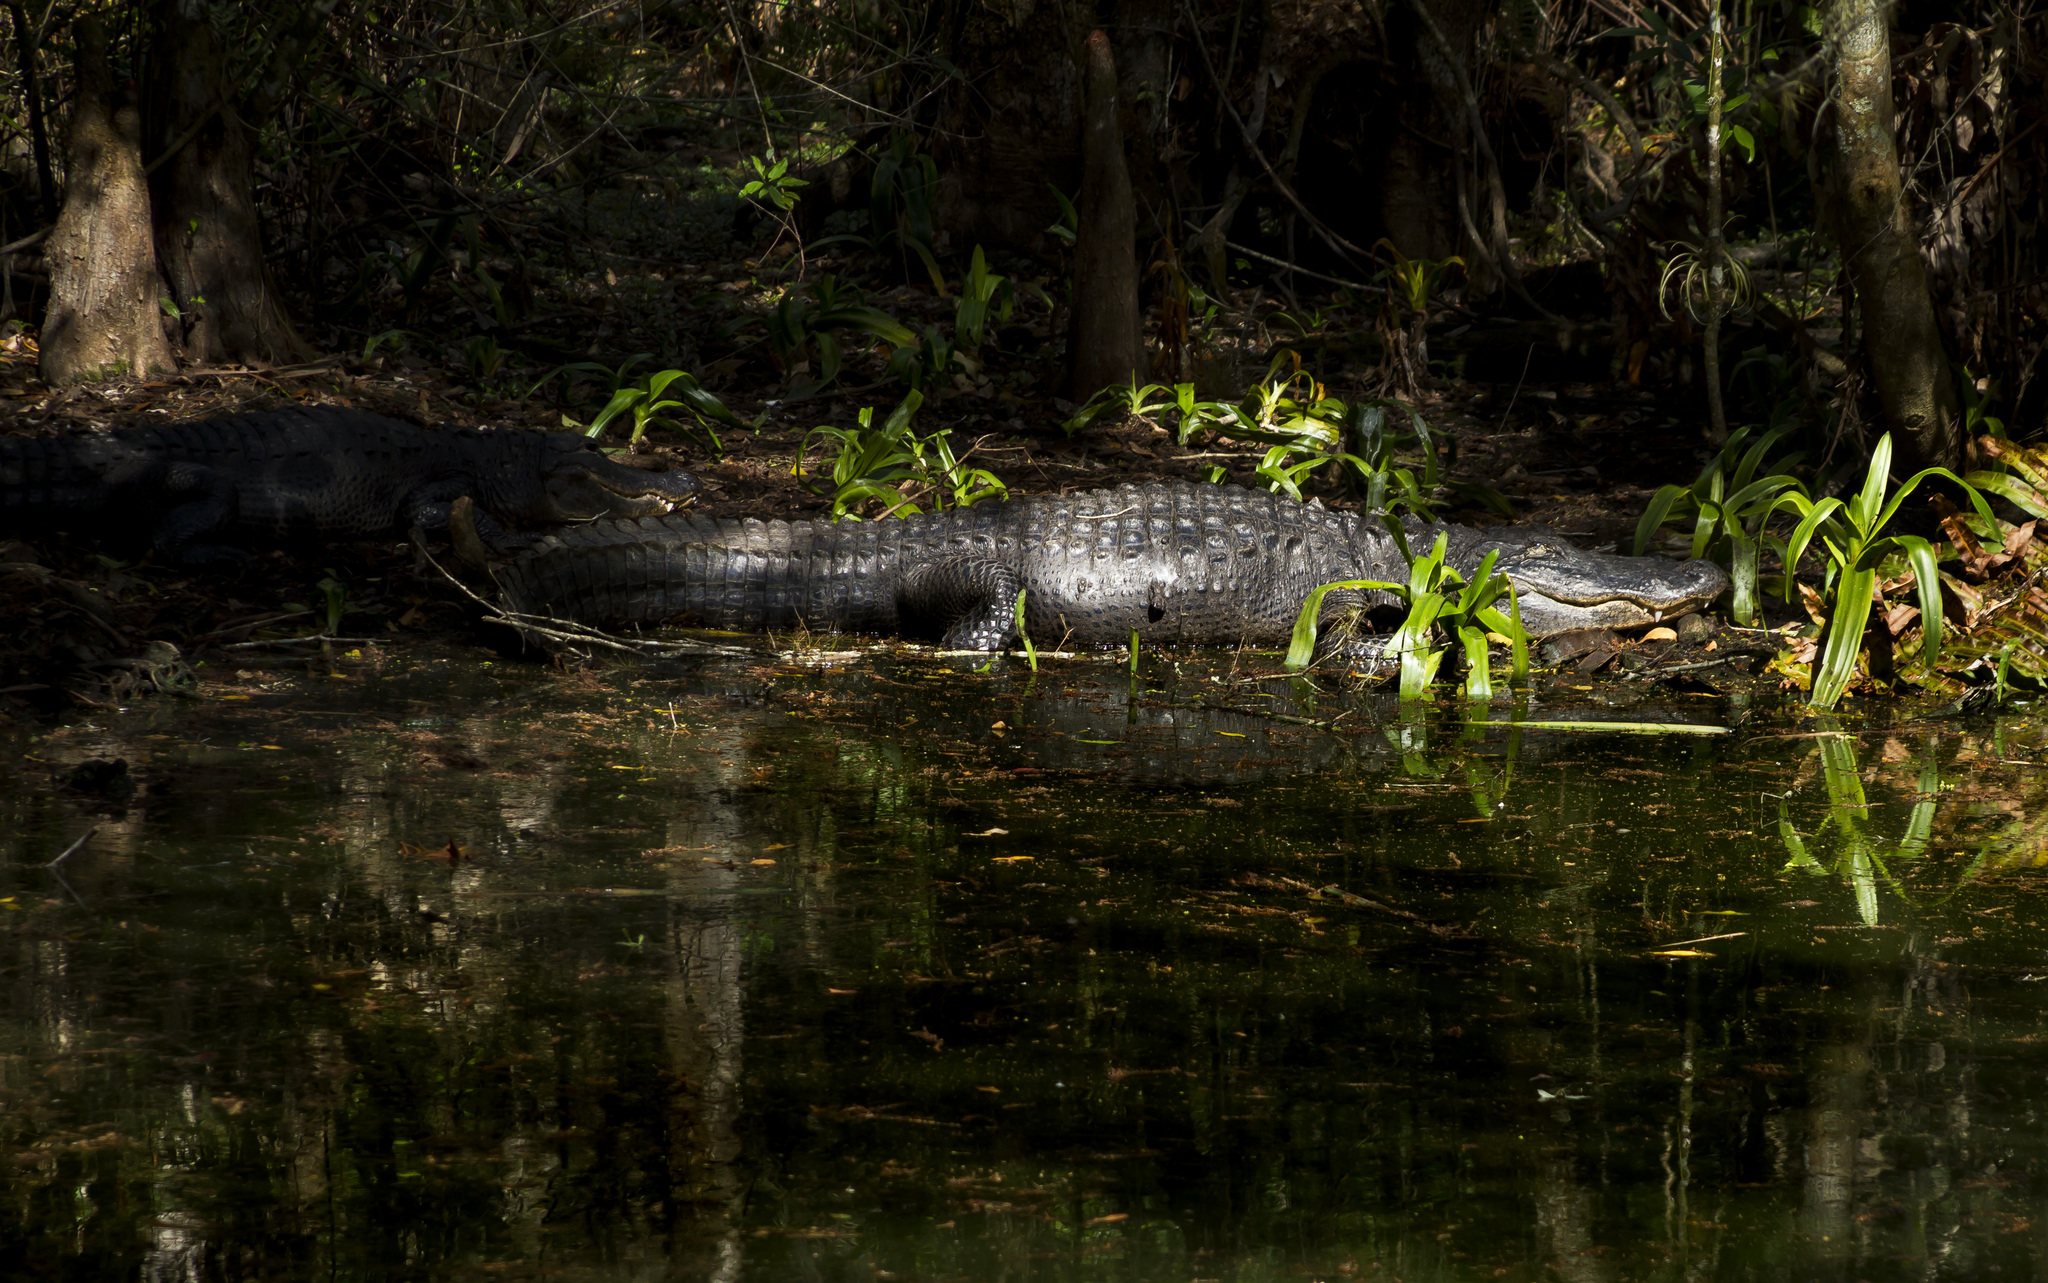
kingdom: Animalia
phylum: Chordata
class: Crocodylia
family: Alligatoridae
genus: Alligator
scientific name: Alligator mississippiensis
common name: American alligator
